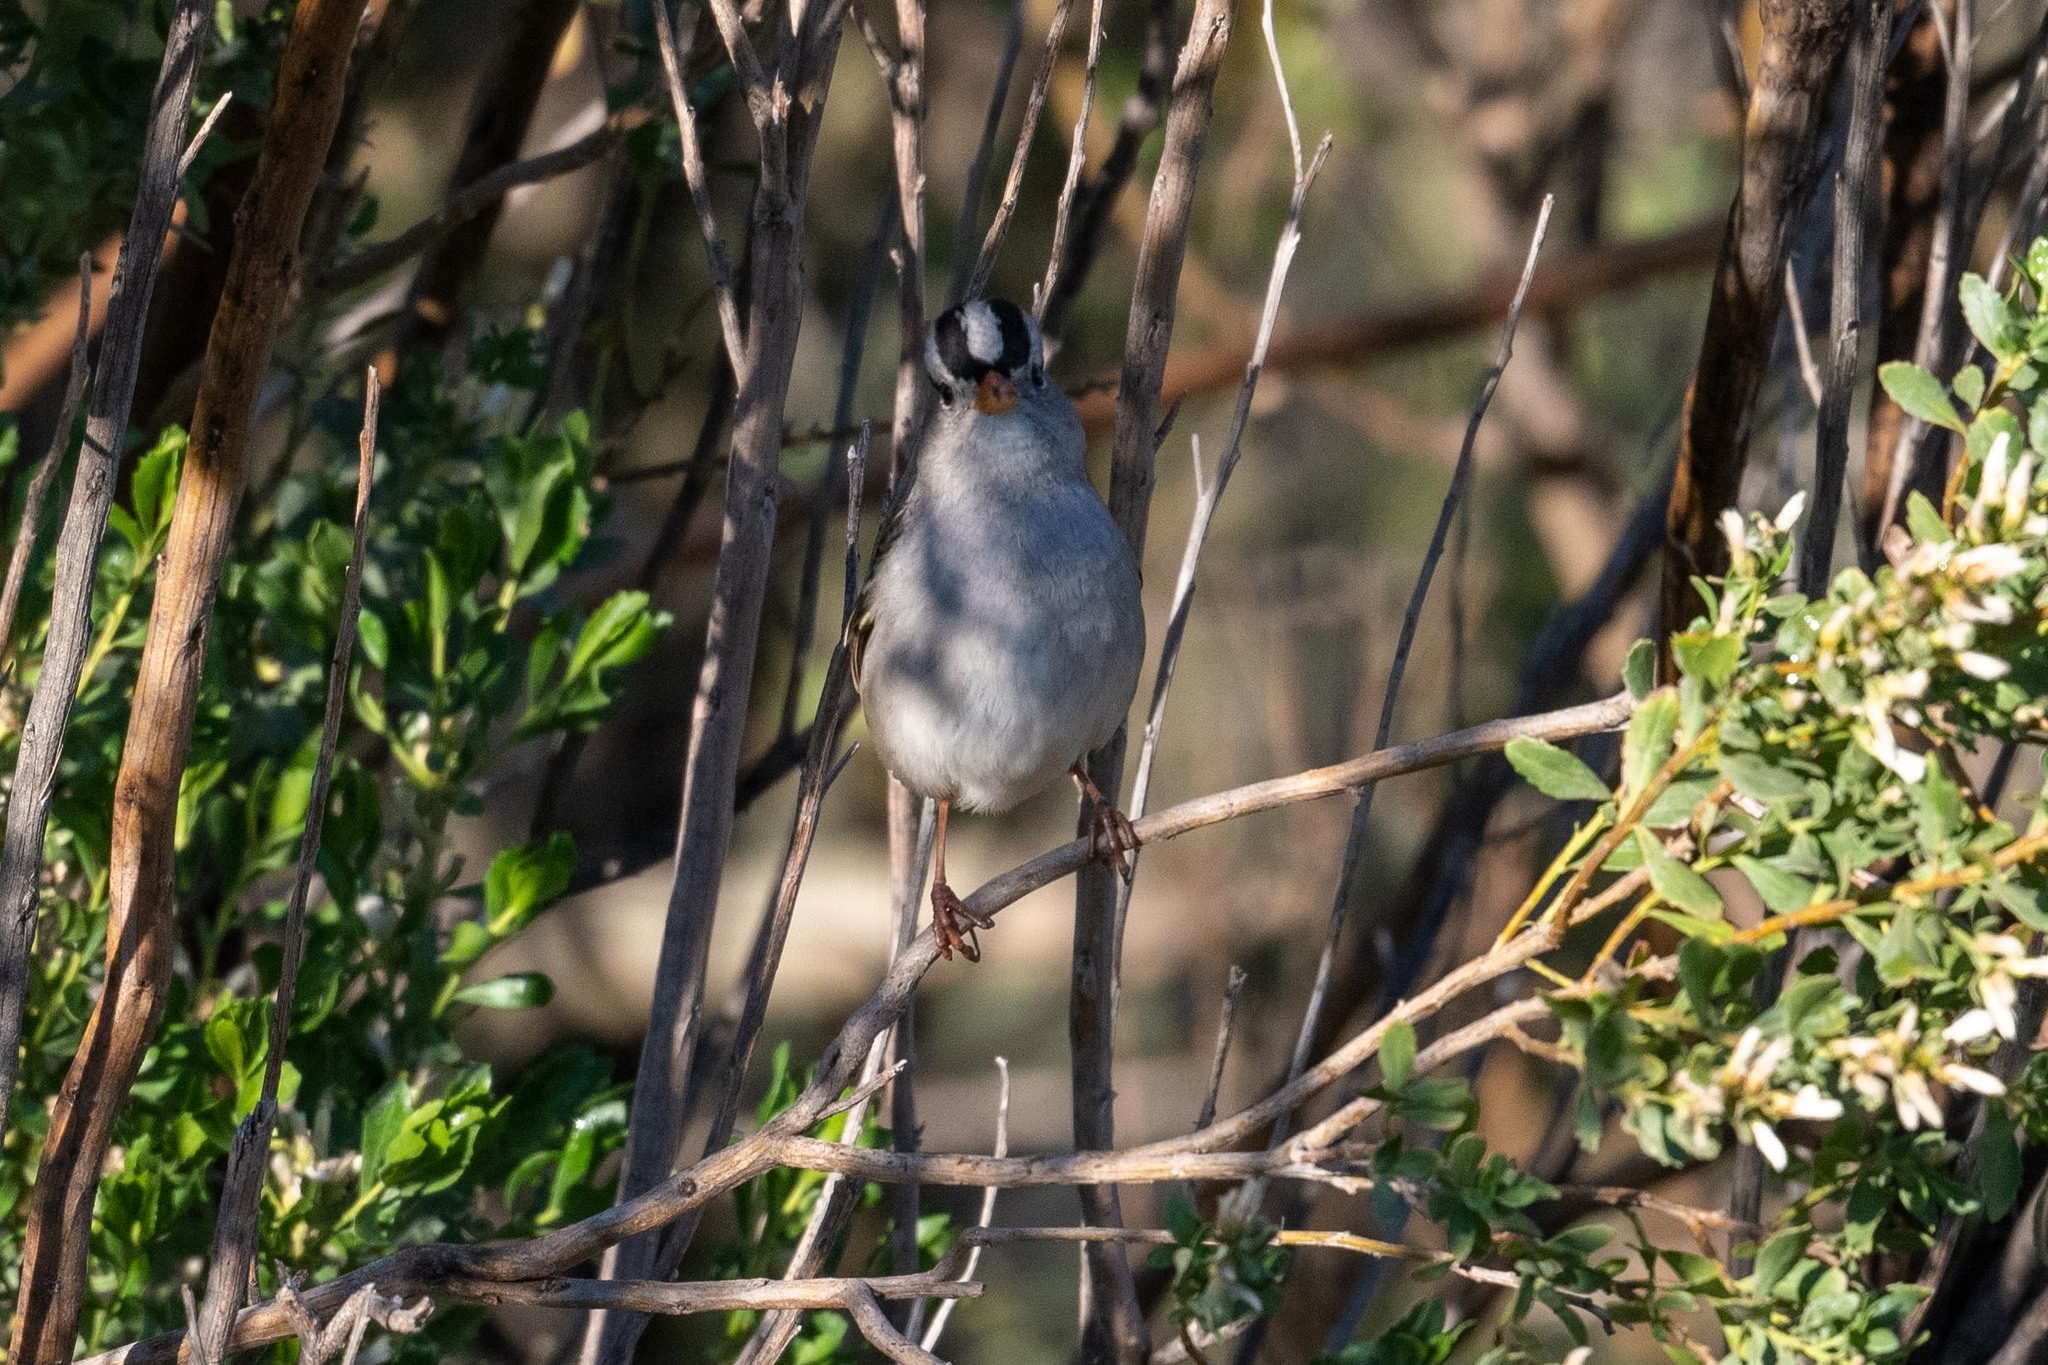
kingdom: Animalia
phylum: Chordata
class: Aves
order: Passeriformes
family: Passerellidae
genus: Zonotrichia
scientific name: Zonotrichia leucophrys
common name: White-crowned sparrow
